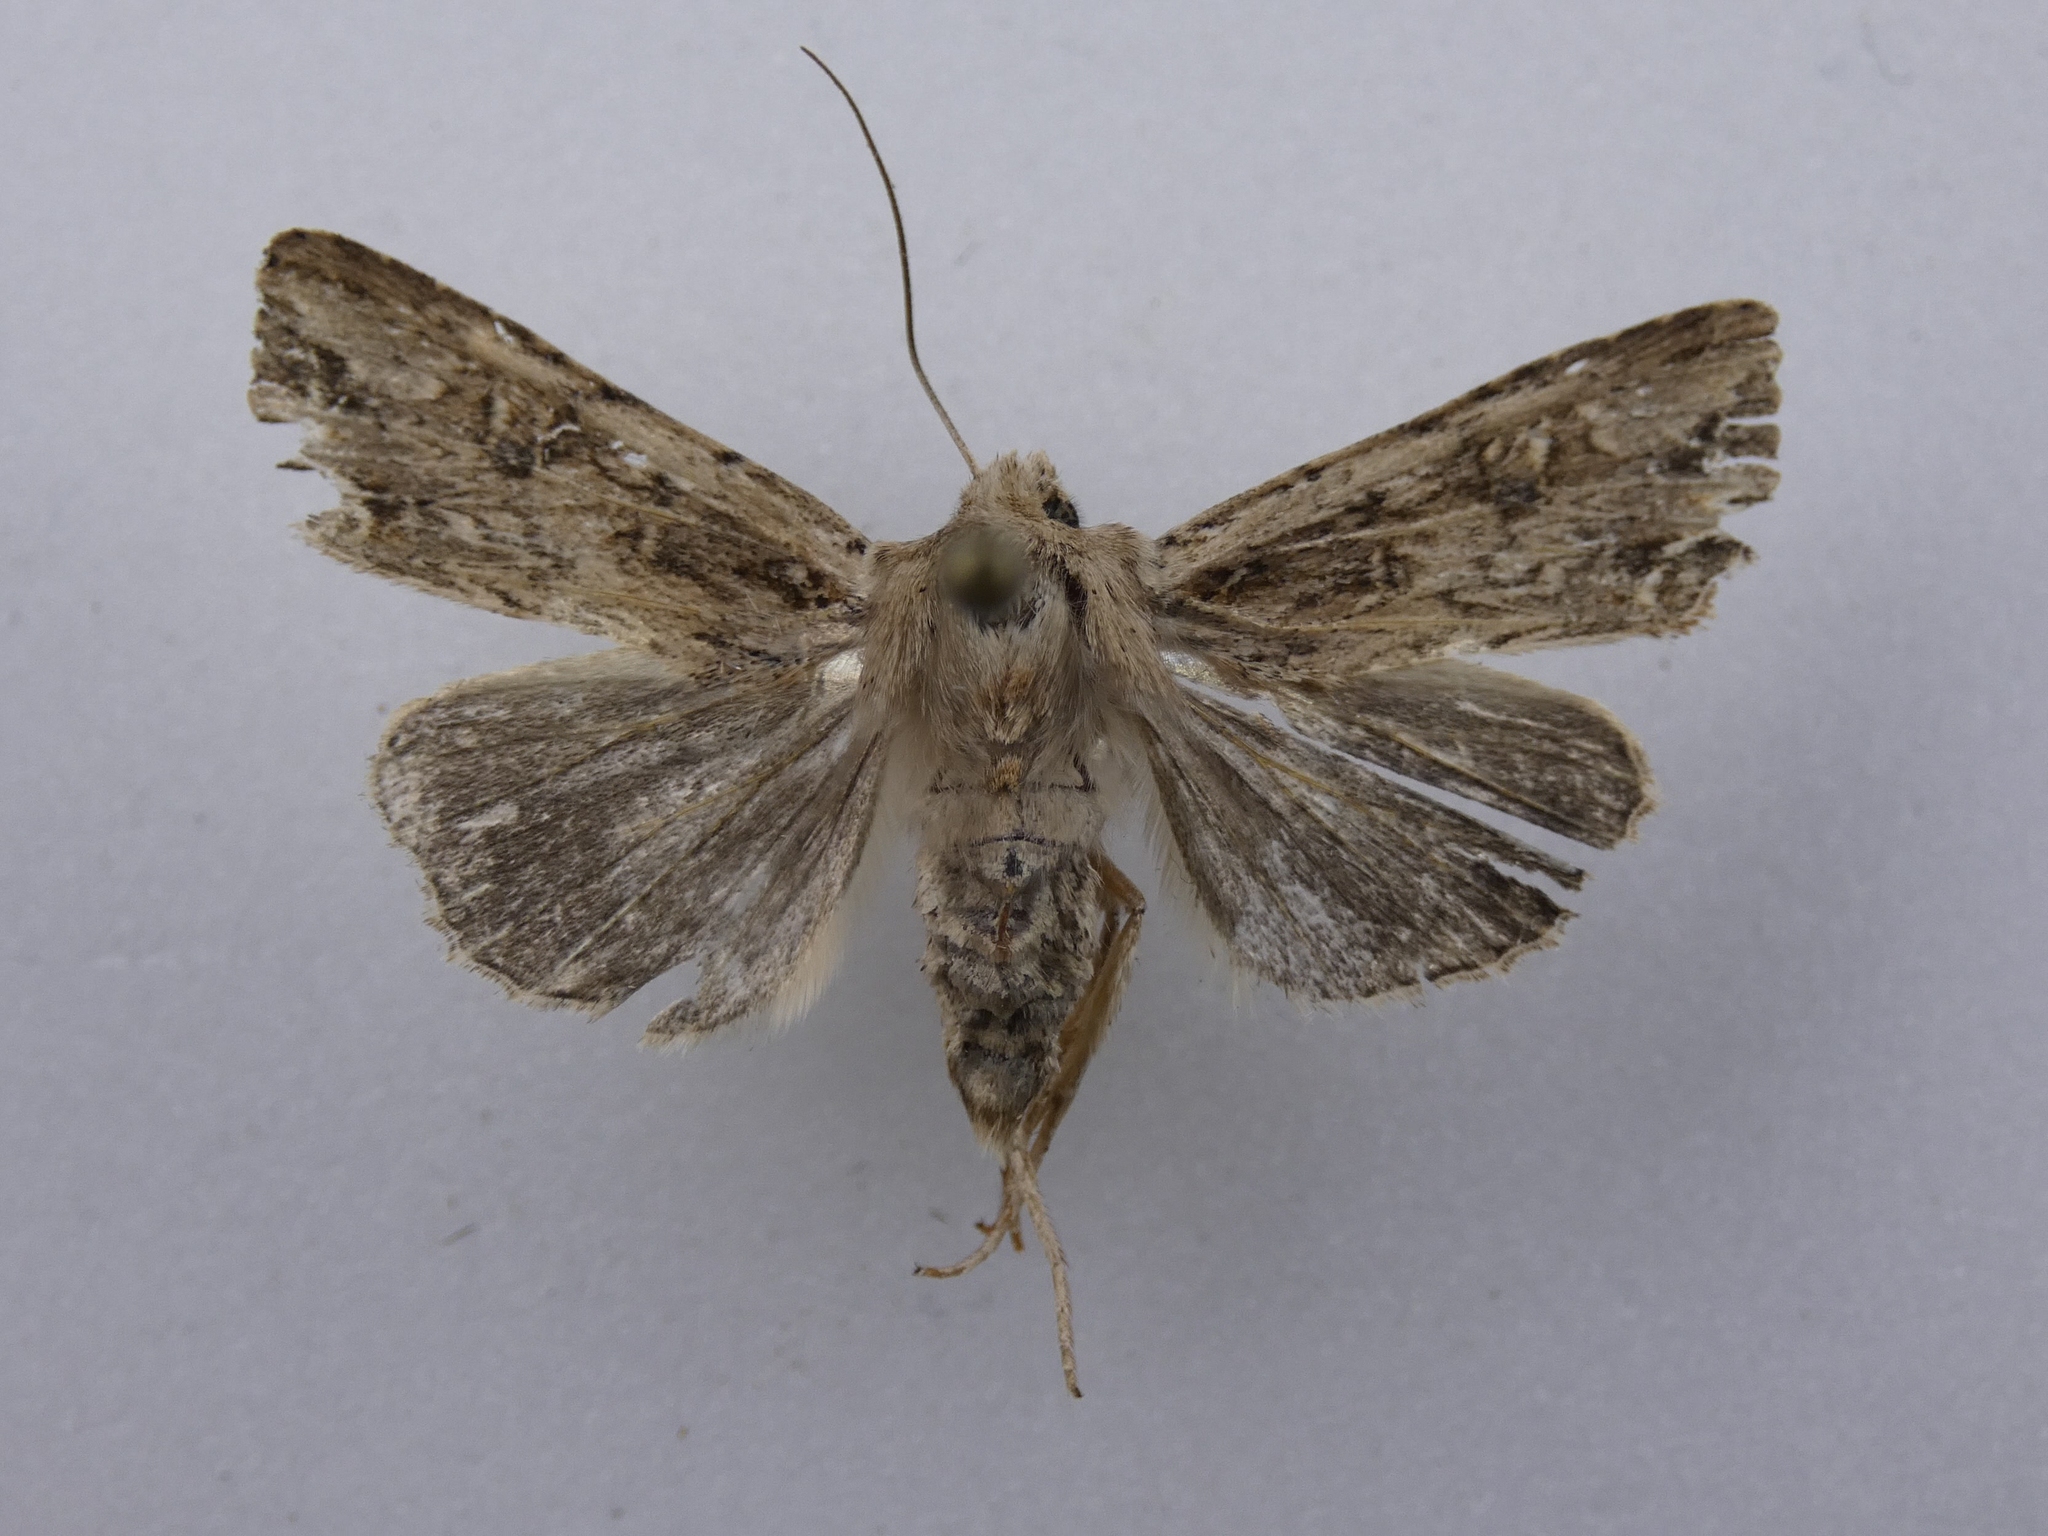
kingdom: Animalia
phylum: Arthropoda
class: Insecta
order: Lepidoptera
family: Noctuidae
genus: Ichneutica
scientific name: Ichneutica lignana
